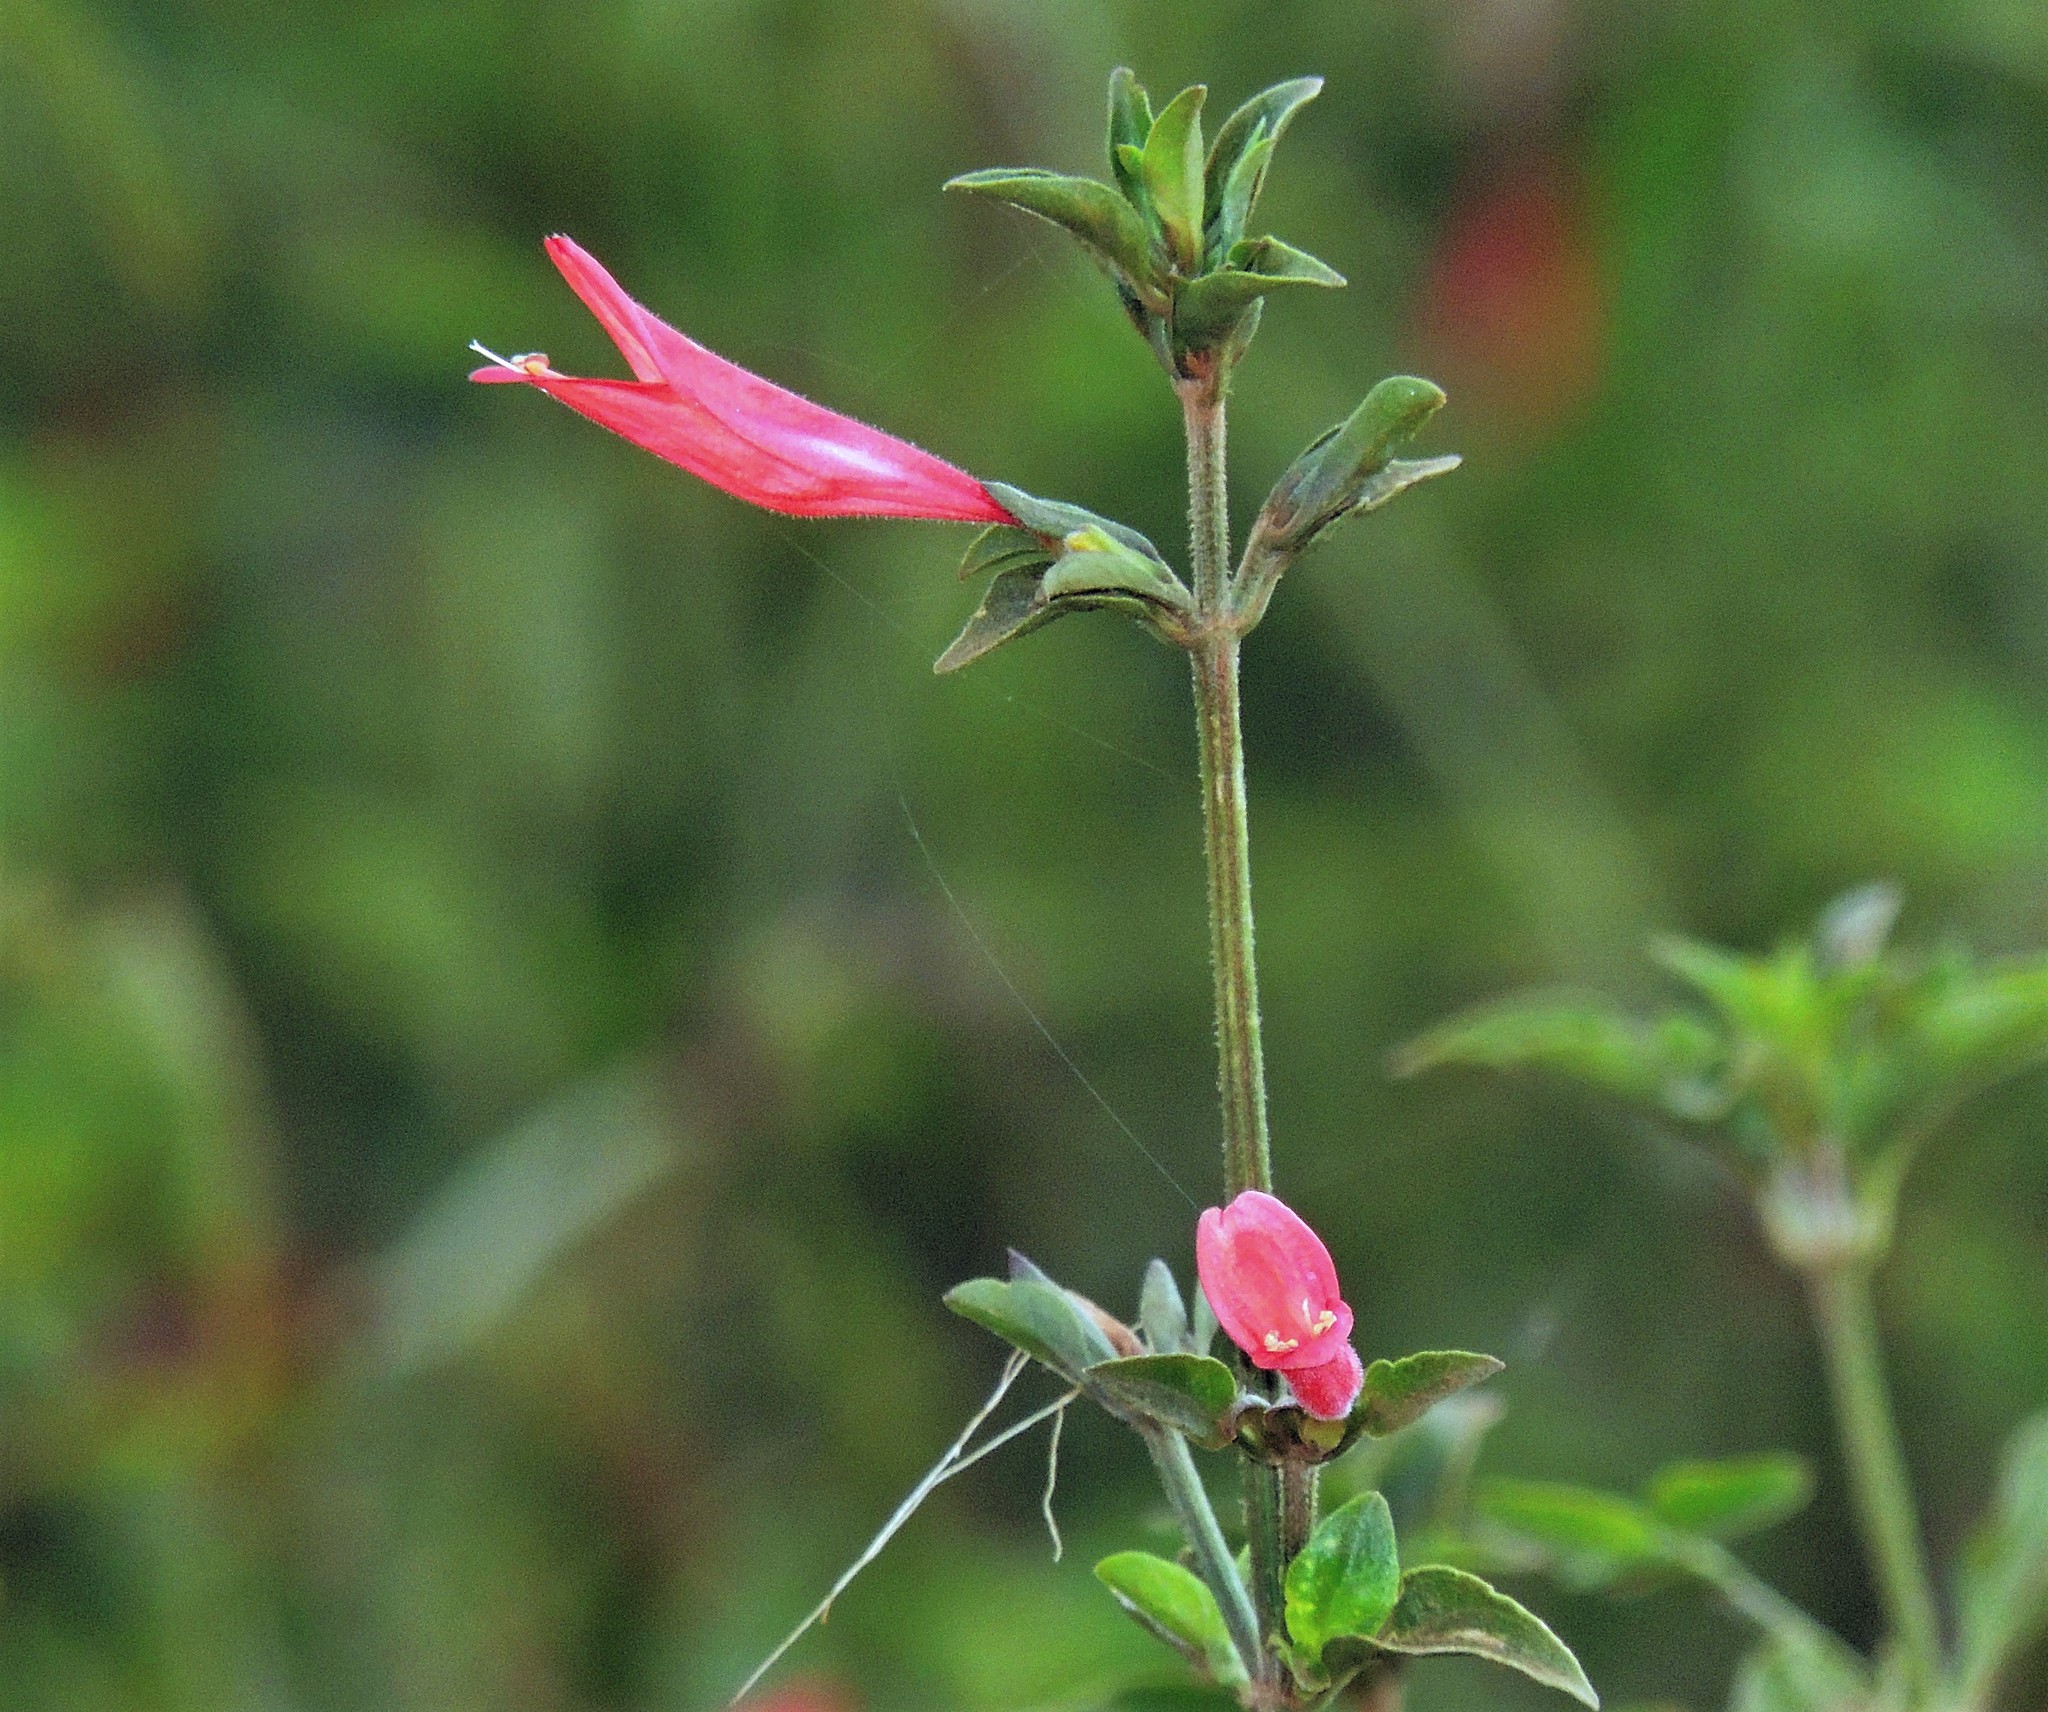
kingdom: Plantae
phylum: Tracheophyta
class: Magnoliopsida
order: Lamiales
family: Acanthaceae
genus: Dicliptera
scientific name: Dicliptera squarrosa
